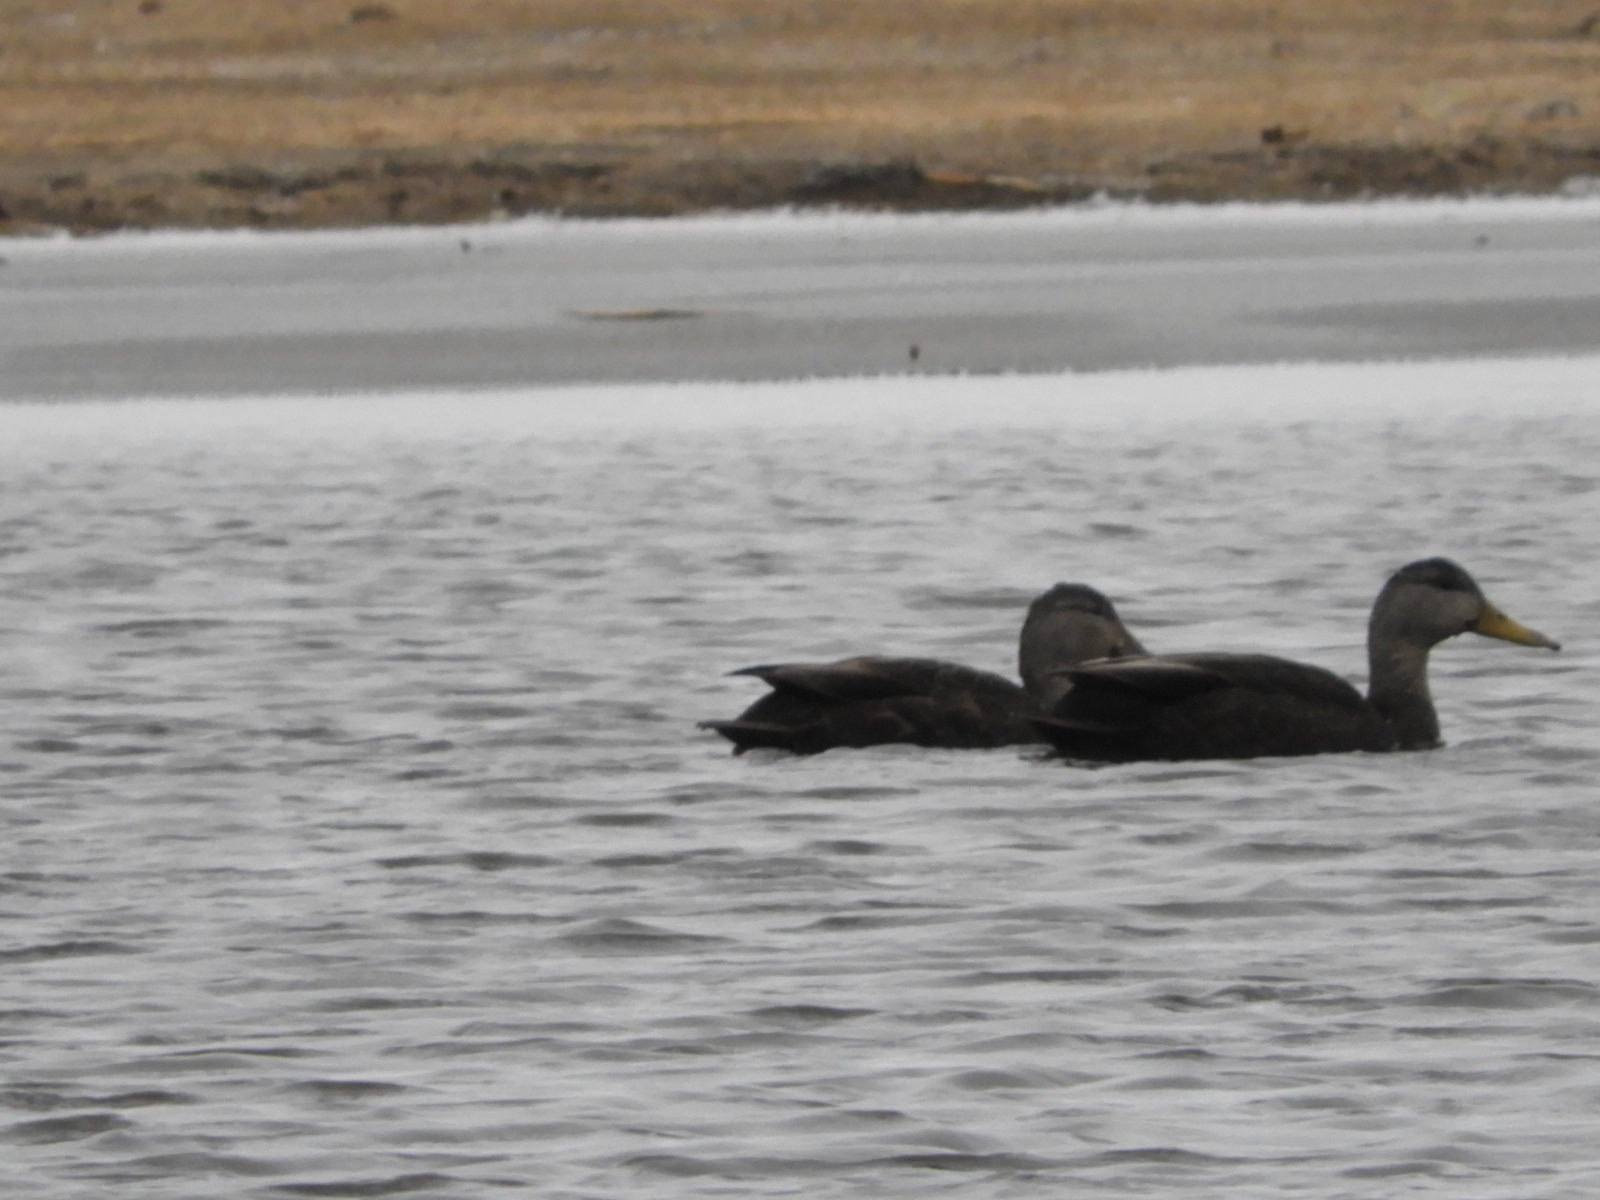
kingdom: Animalia
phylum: Chordata
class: Aves
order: Anseriformes
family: Anatidae
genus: Anas
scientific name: Anas rubripes
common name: American black duck
